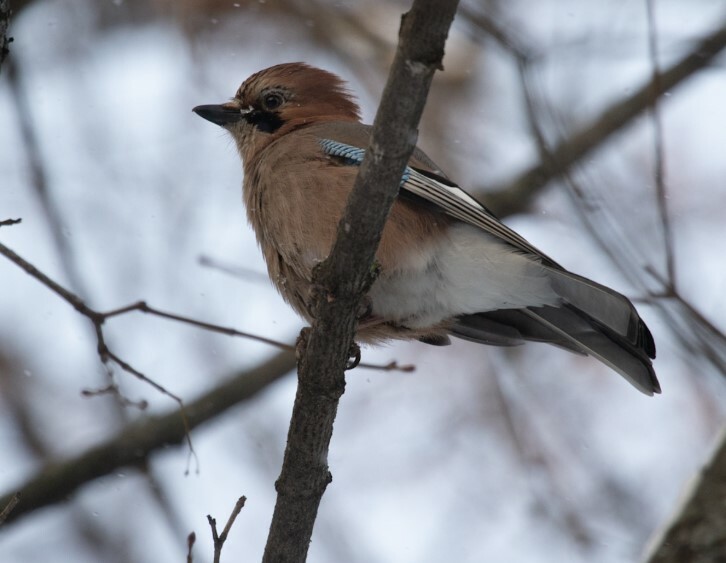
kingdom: Animalia
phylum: Chordata
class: Aves
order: Passeriformes
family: Corvidae
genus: Garrulus
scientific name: Garrulus glandarius
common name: Eurasian jay
